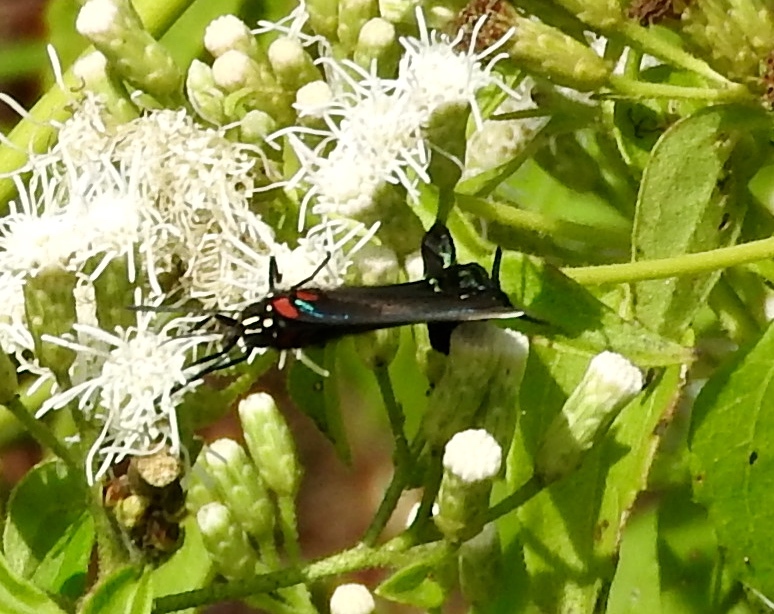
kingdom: Animalia
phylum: Arthropoda
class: Insecta
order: Lepidoptera
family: Lycaenidae
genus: Atlides
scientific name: Atlides
